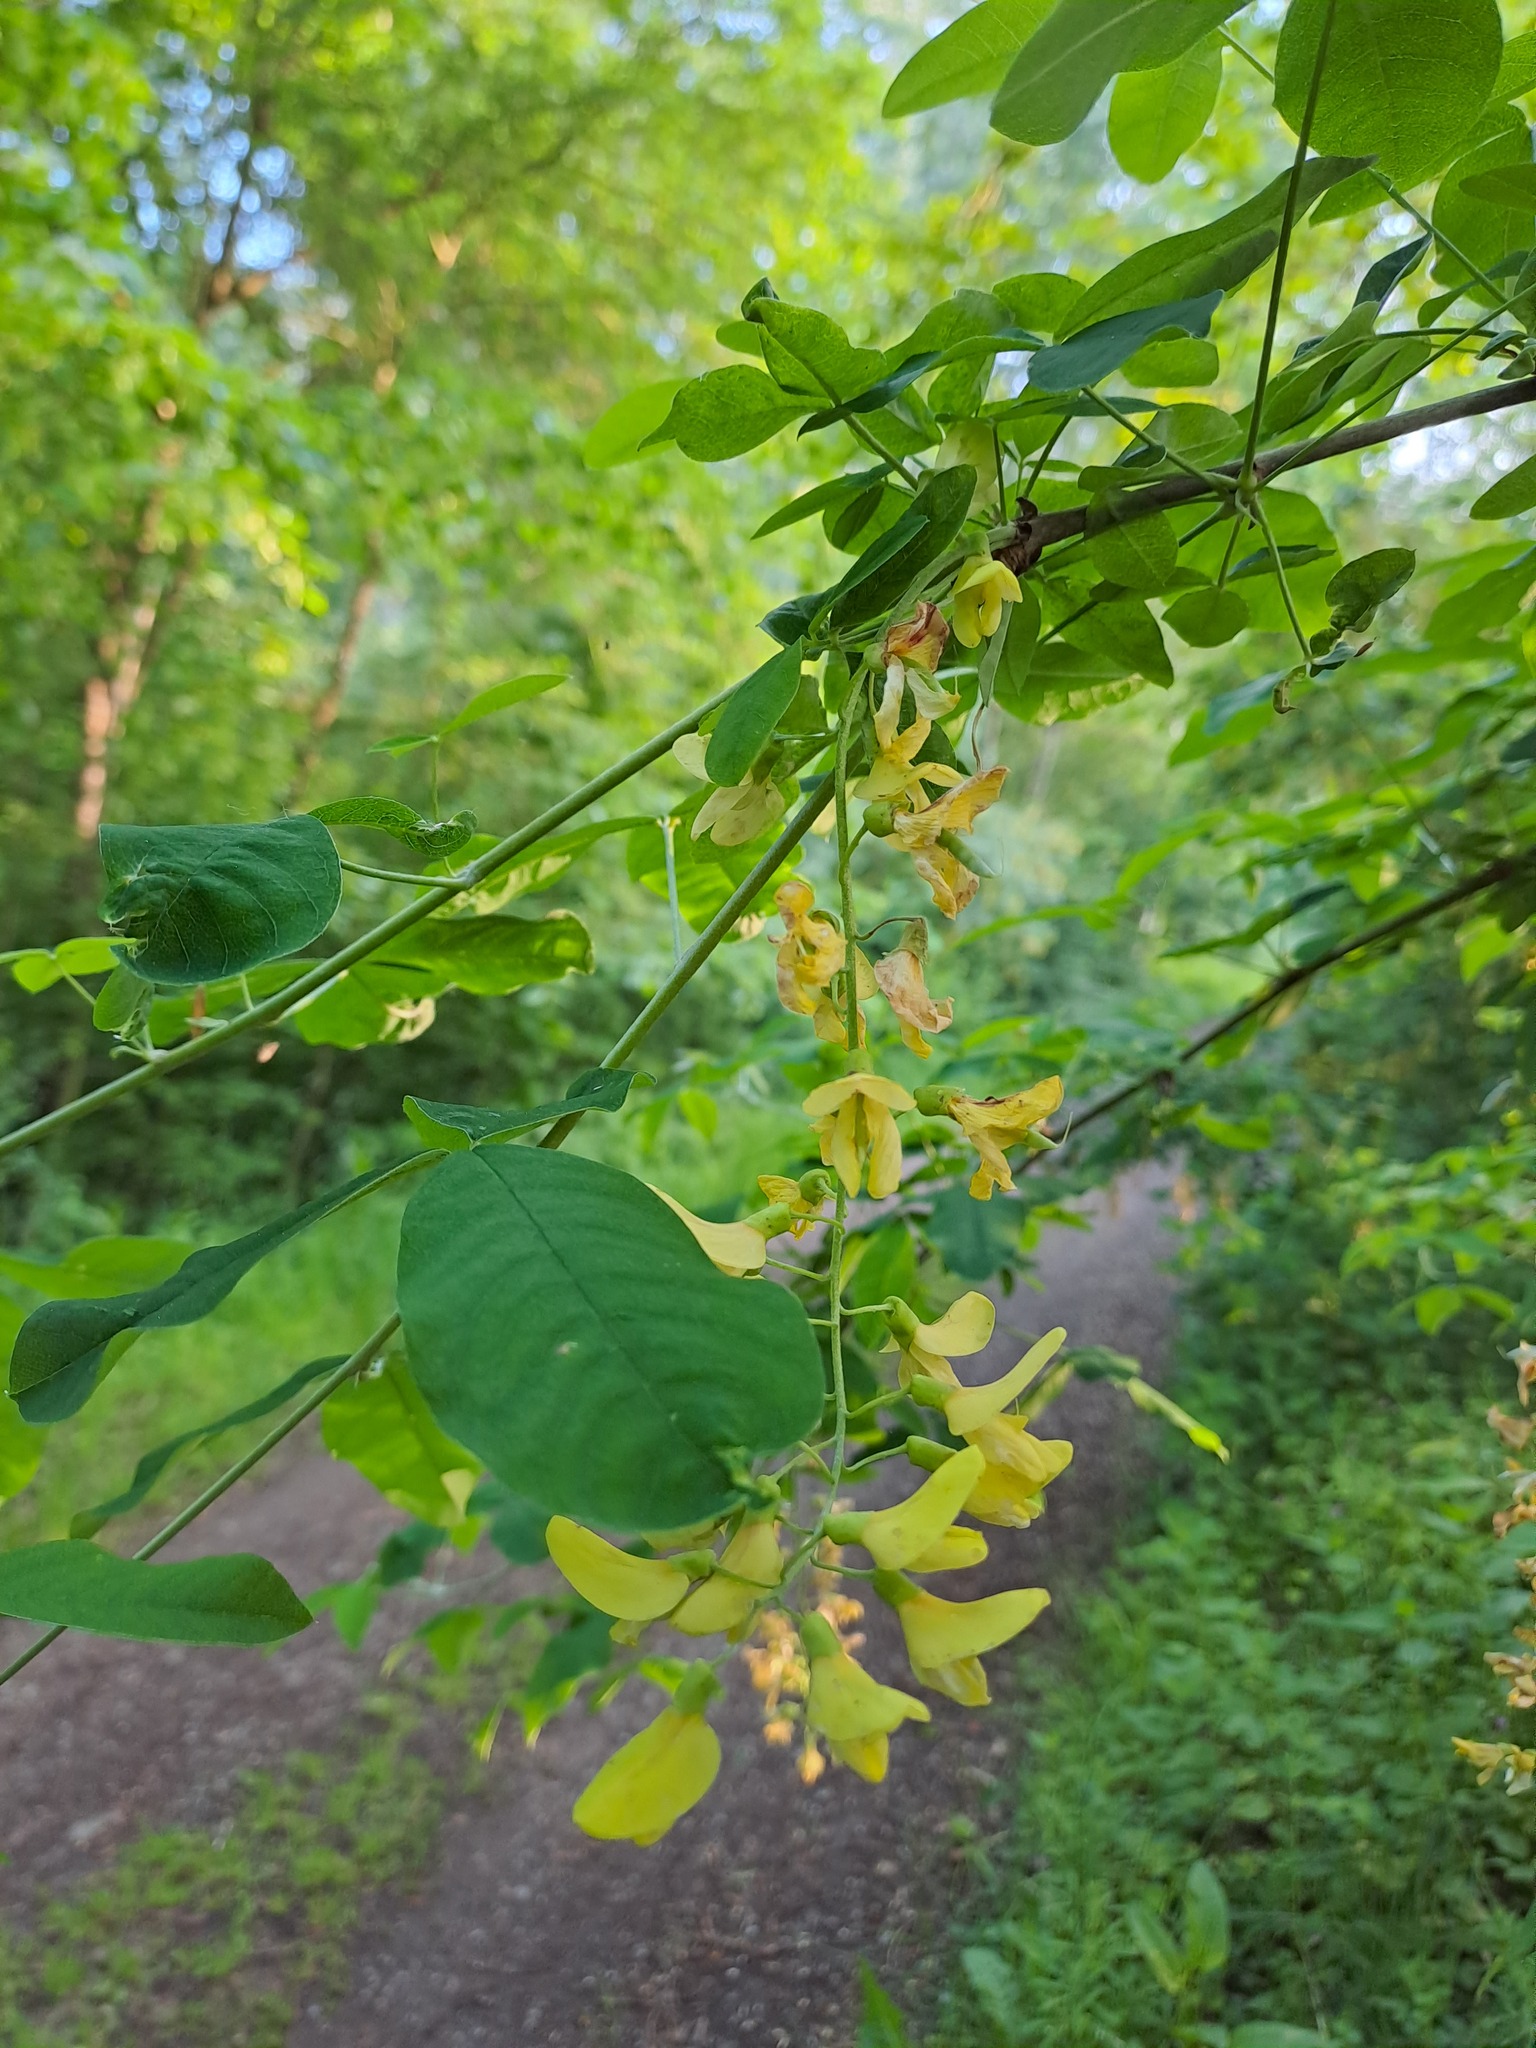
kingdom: Plantae
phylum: Tracheophyta
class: Magnoliopsida
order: Fabales
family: Fabaceae
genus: Laburnum
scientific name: Laburnum anagyroides
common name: Laburnum
